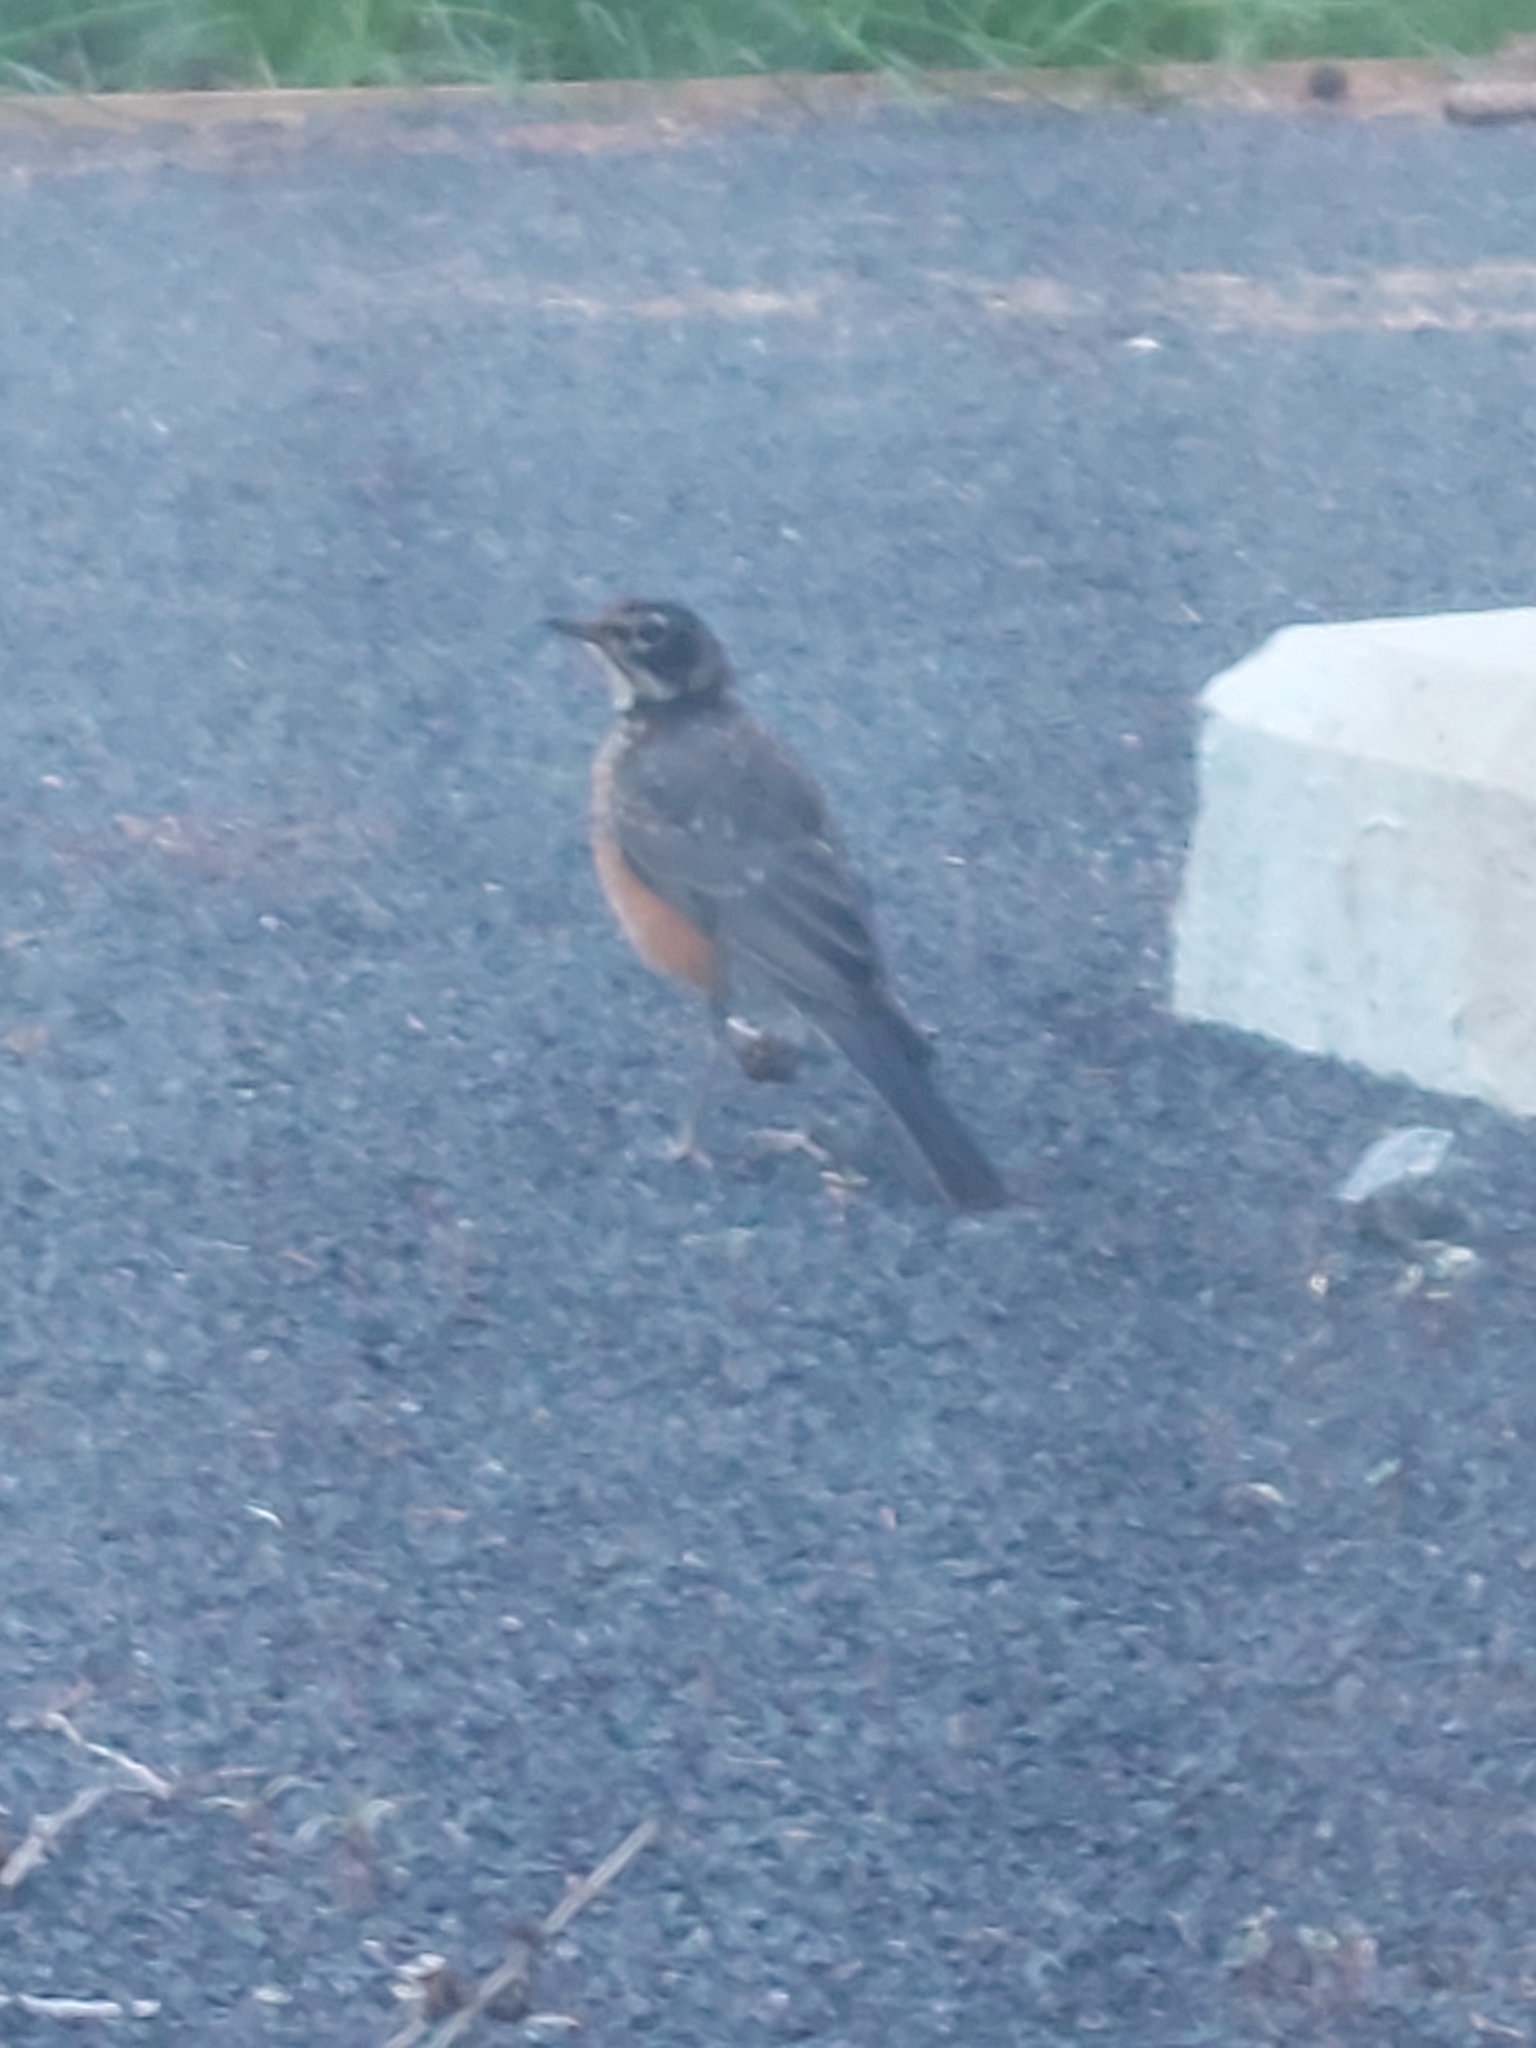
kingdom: Animalia
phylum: Chordata
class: Aves
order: Passeriformes
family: Turdidae
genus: Turdus
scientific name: Turdus migratorius
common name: American robin
